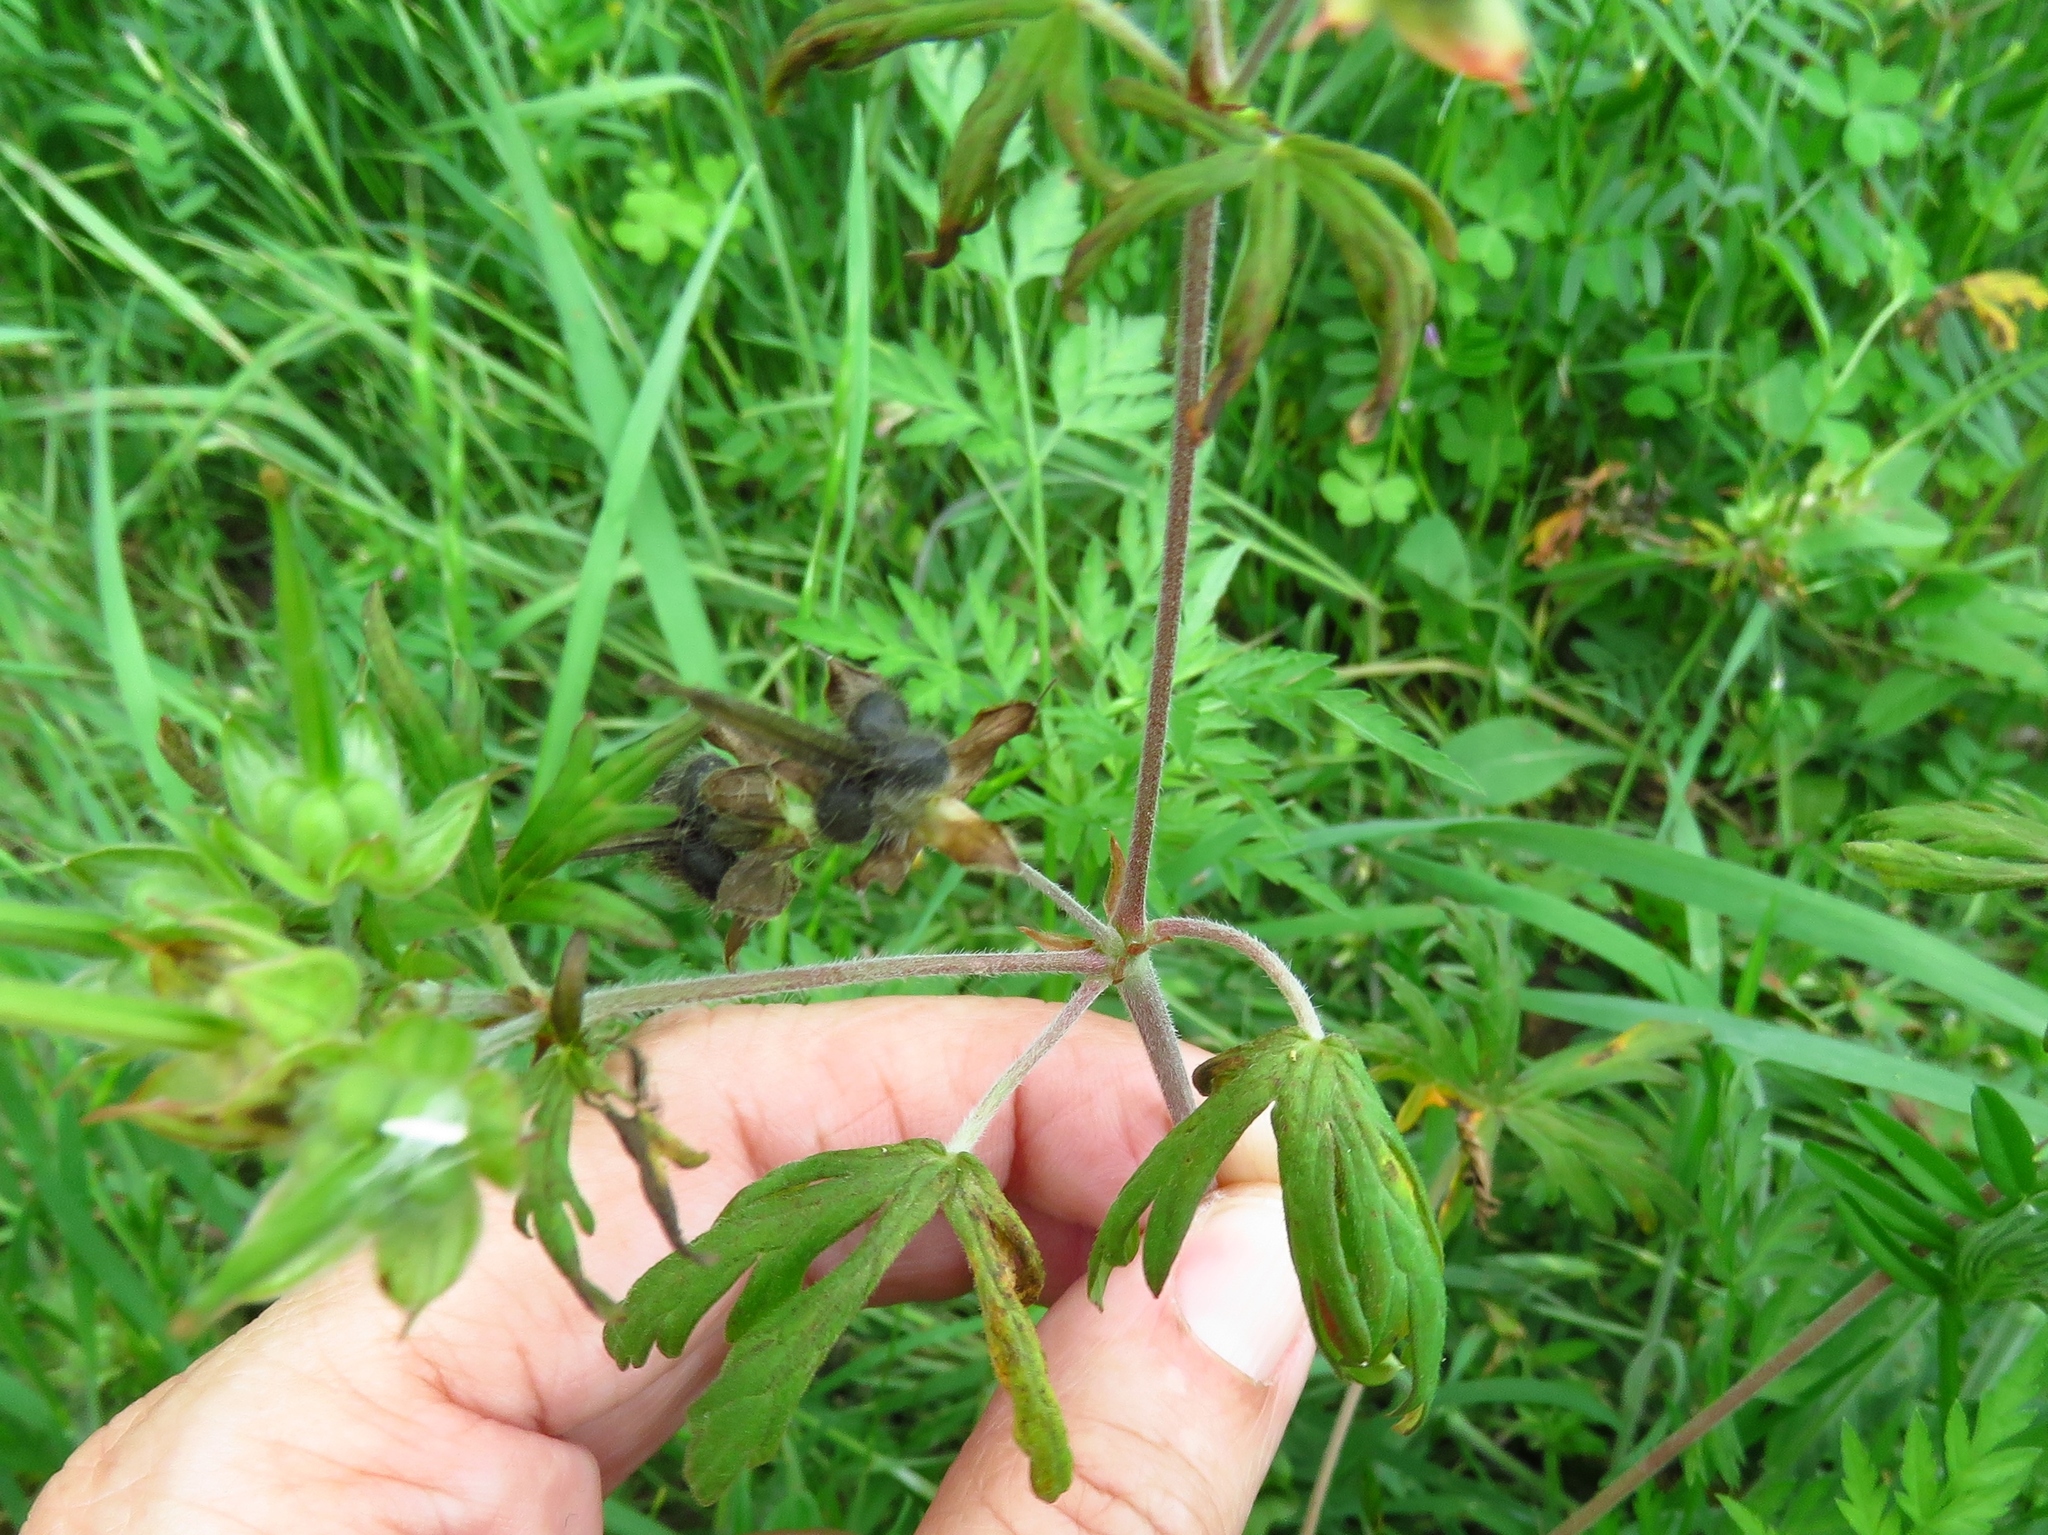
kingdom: Plantae
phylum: Tracheophyta
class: Magnoliopsida
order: Geraniales
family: Geraniaceae
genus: Geranium
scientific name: Geranium carolinianum
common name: Carolina crane's-bill
